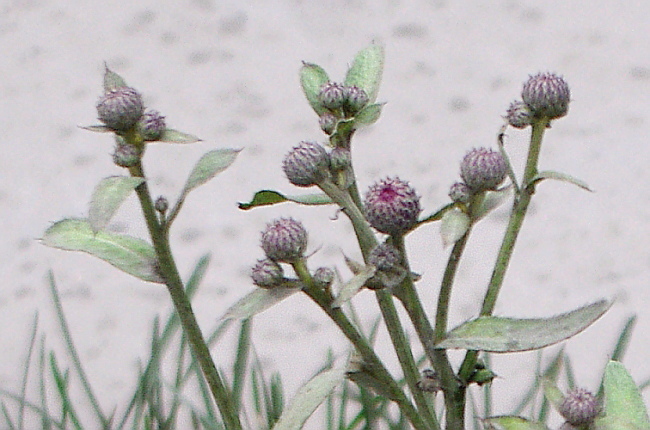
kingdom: Plantae
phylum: Tracheophyta
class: Magnoliopsida
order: Asterales
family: Asteraceae
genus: Cirsium
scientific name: Cirsium arvense
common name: Creeping thistle
